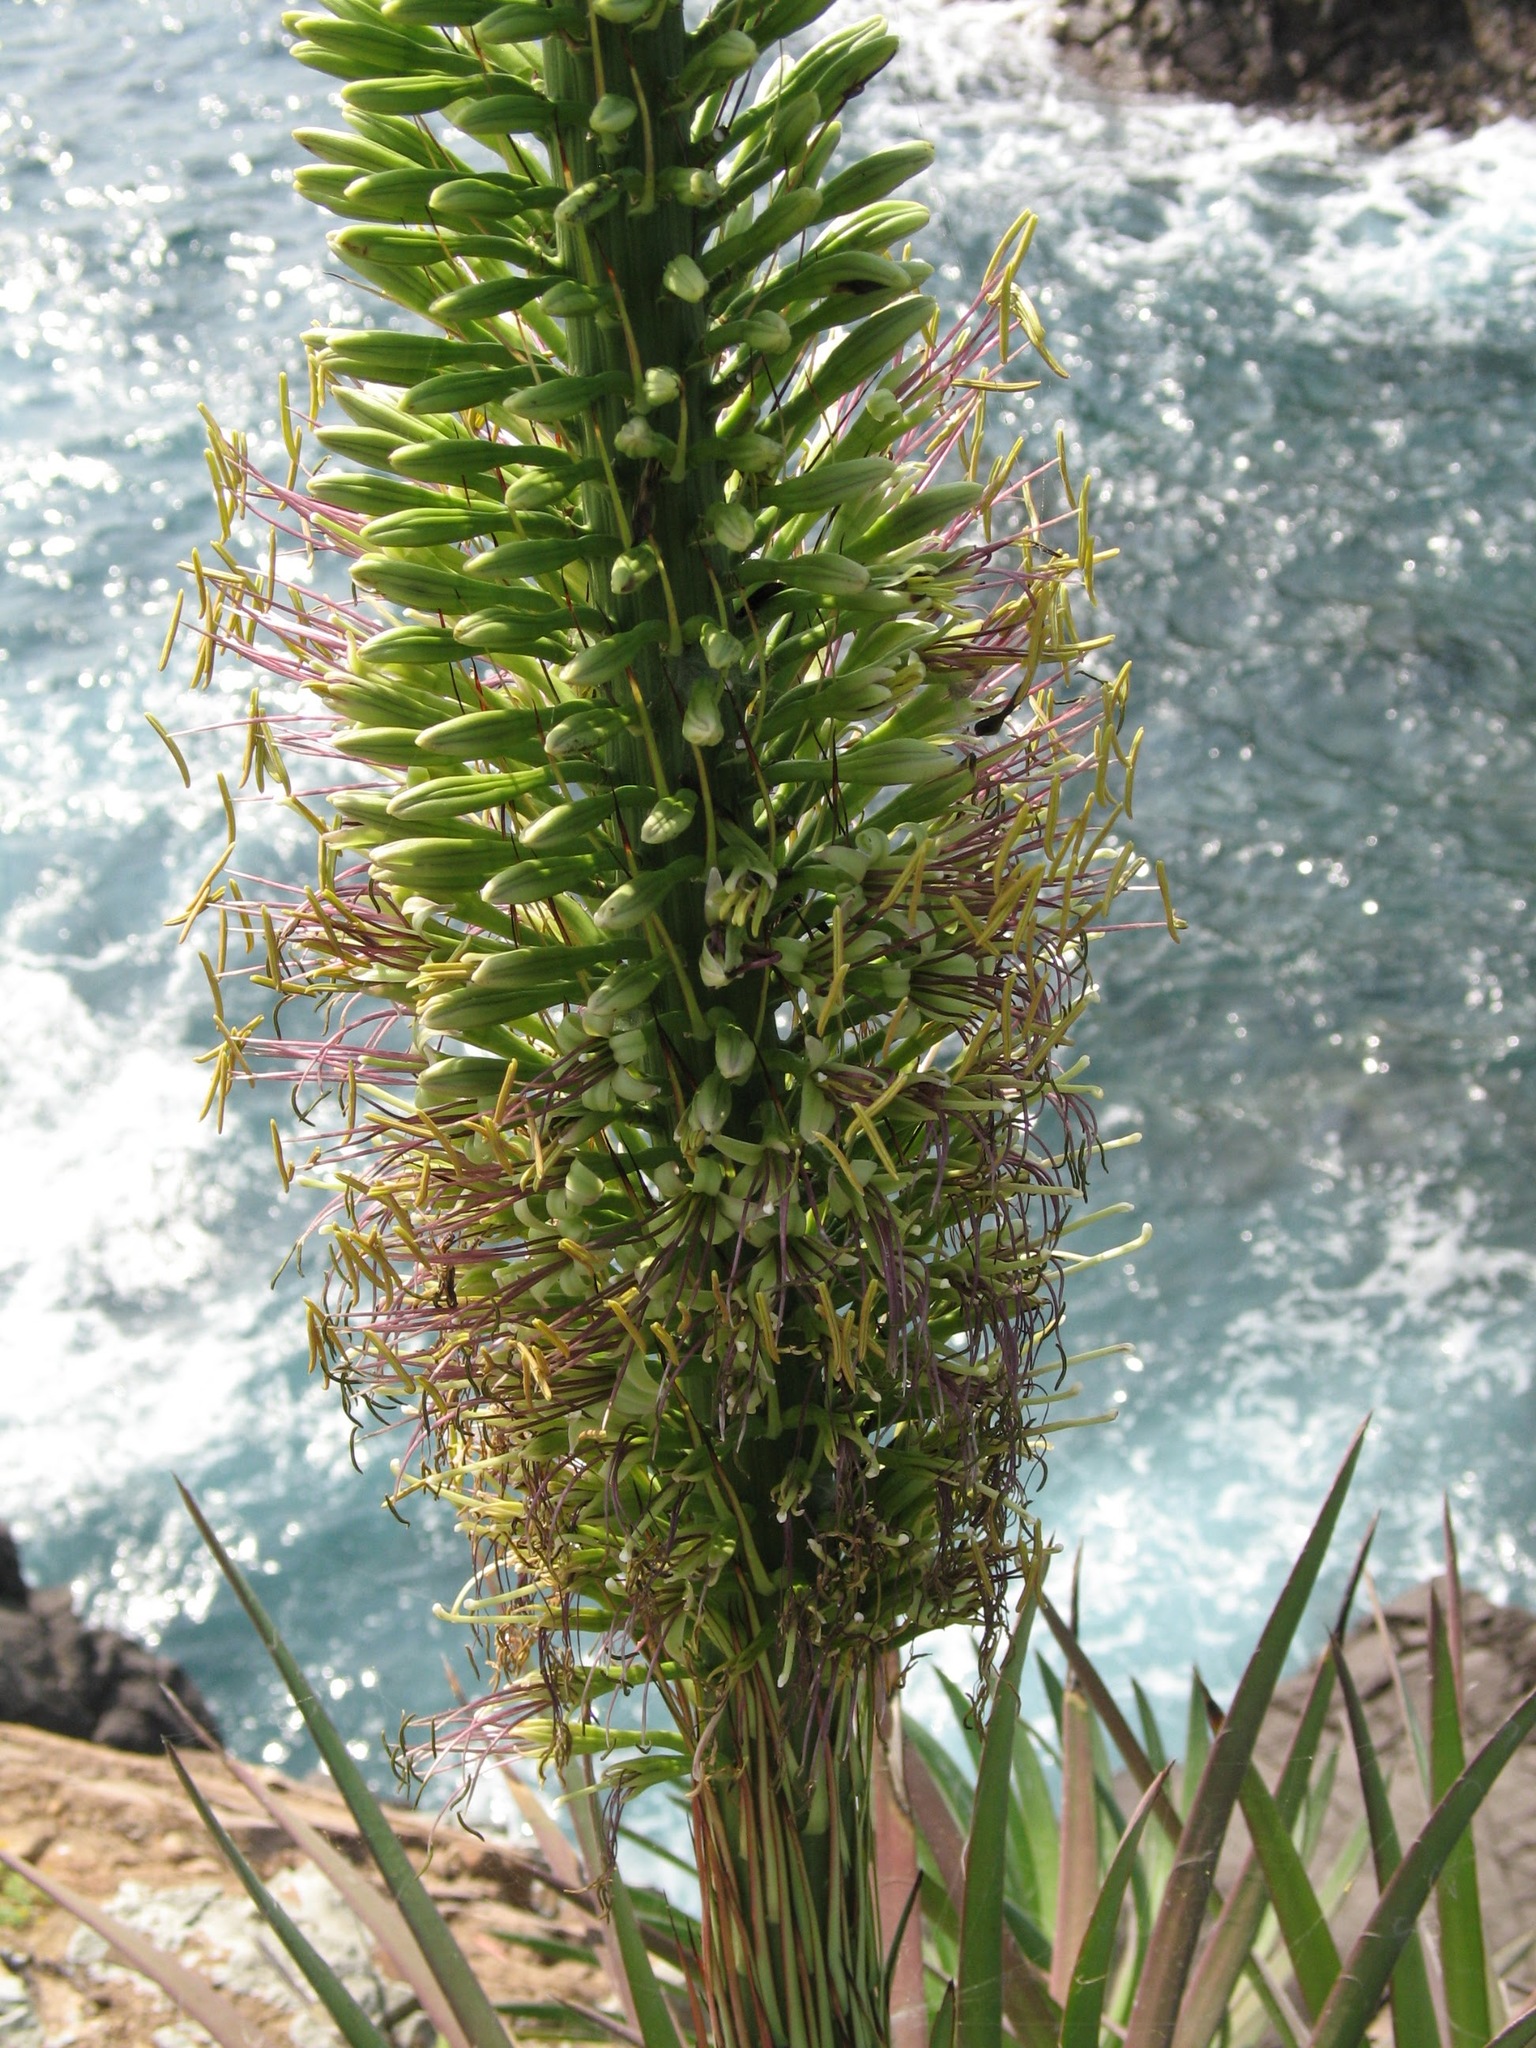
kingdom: Plantae
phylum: Tracheophyta
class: Liliopsida
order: Asparagales
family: Asparagaceae
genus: Agave
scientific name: Agave ortgiesiana
